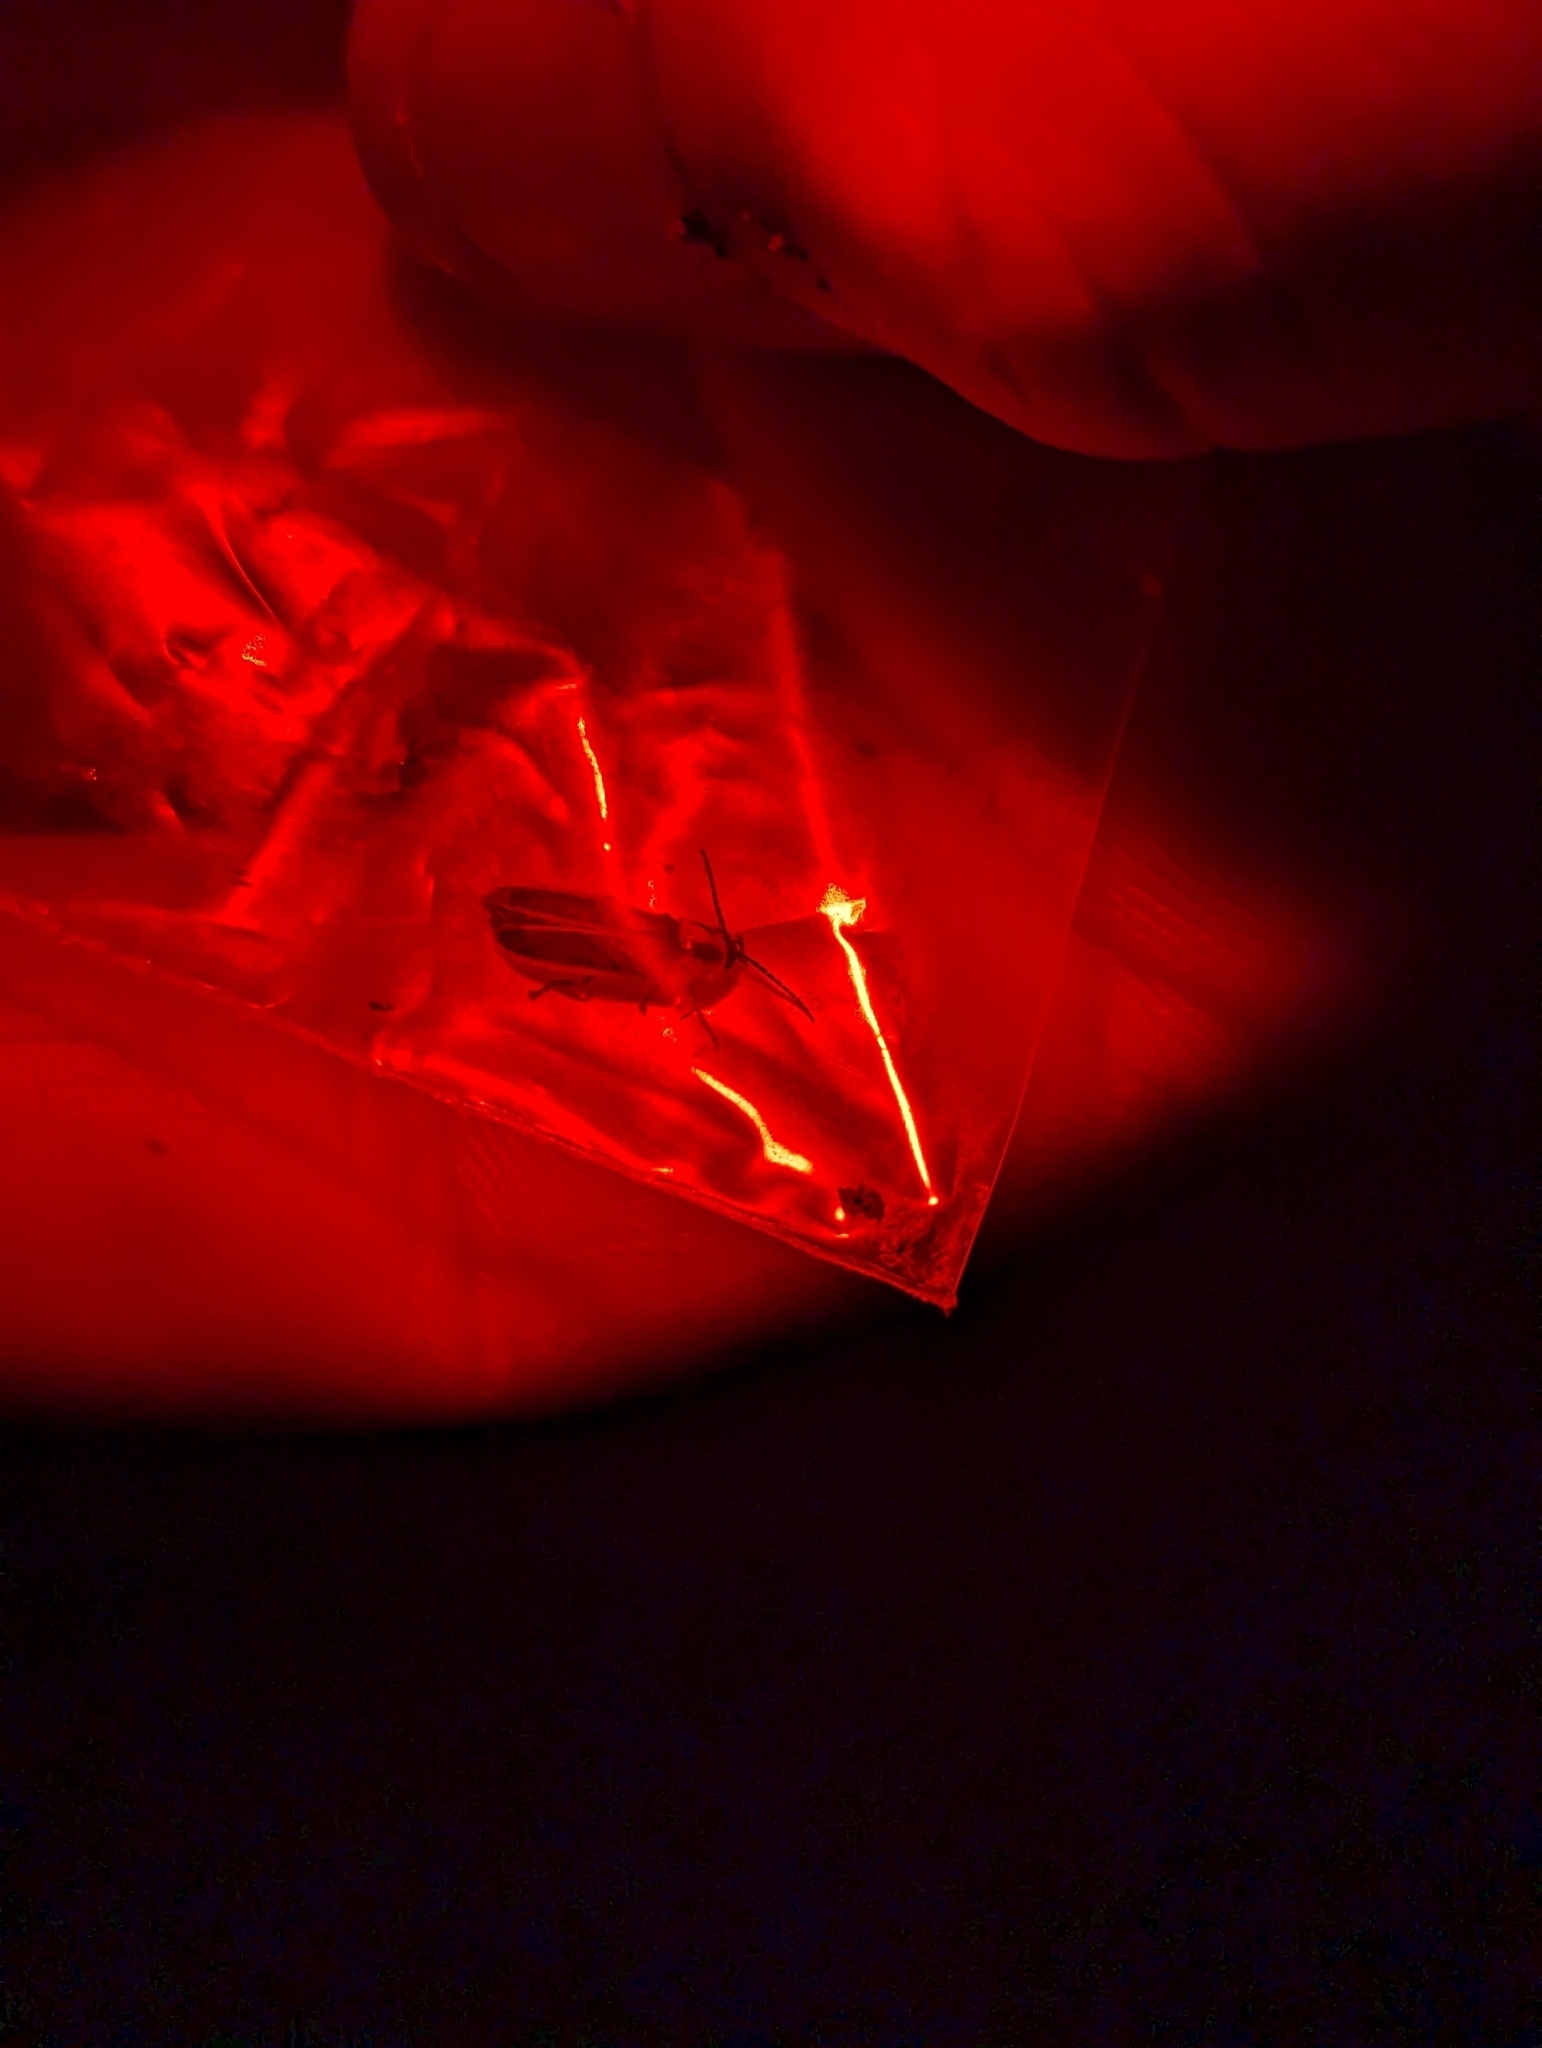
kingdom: Animalia
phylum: Arthropoda
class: Insecta
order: Coleoptera
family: Lampyridae
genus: Photinus
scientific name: Photinus knulli
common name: Fall southwest firefly
